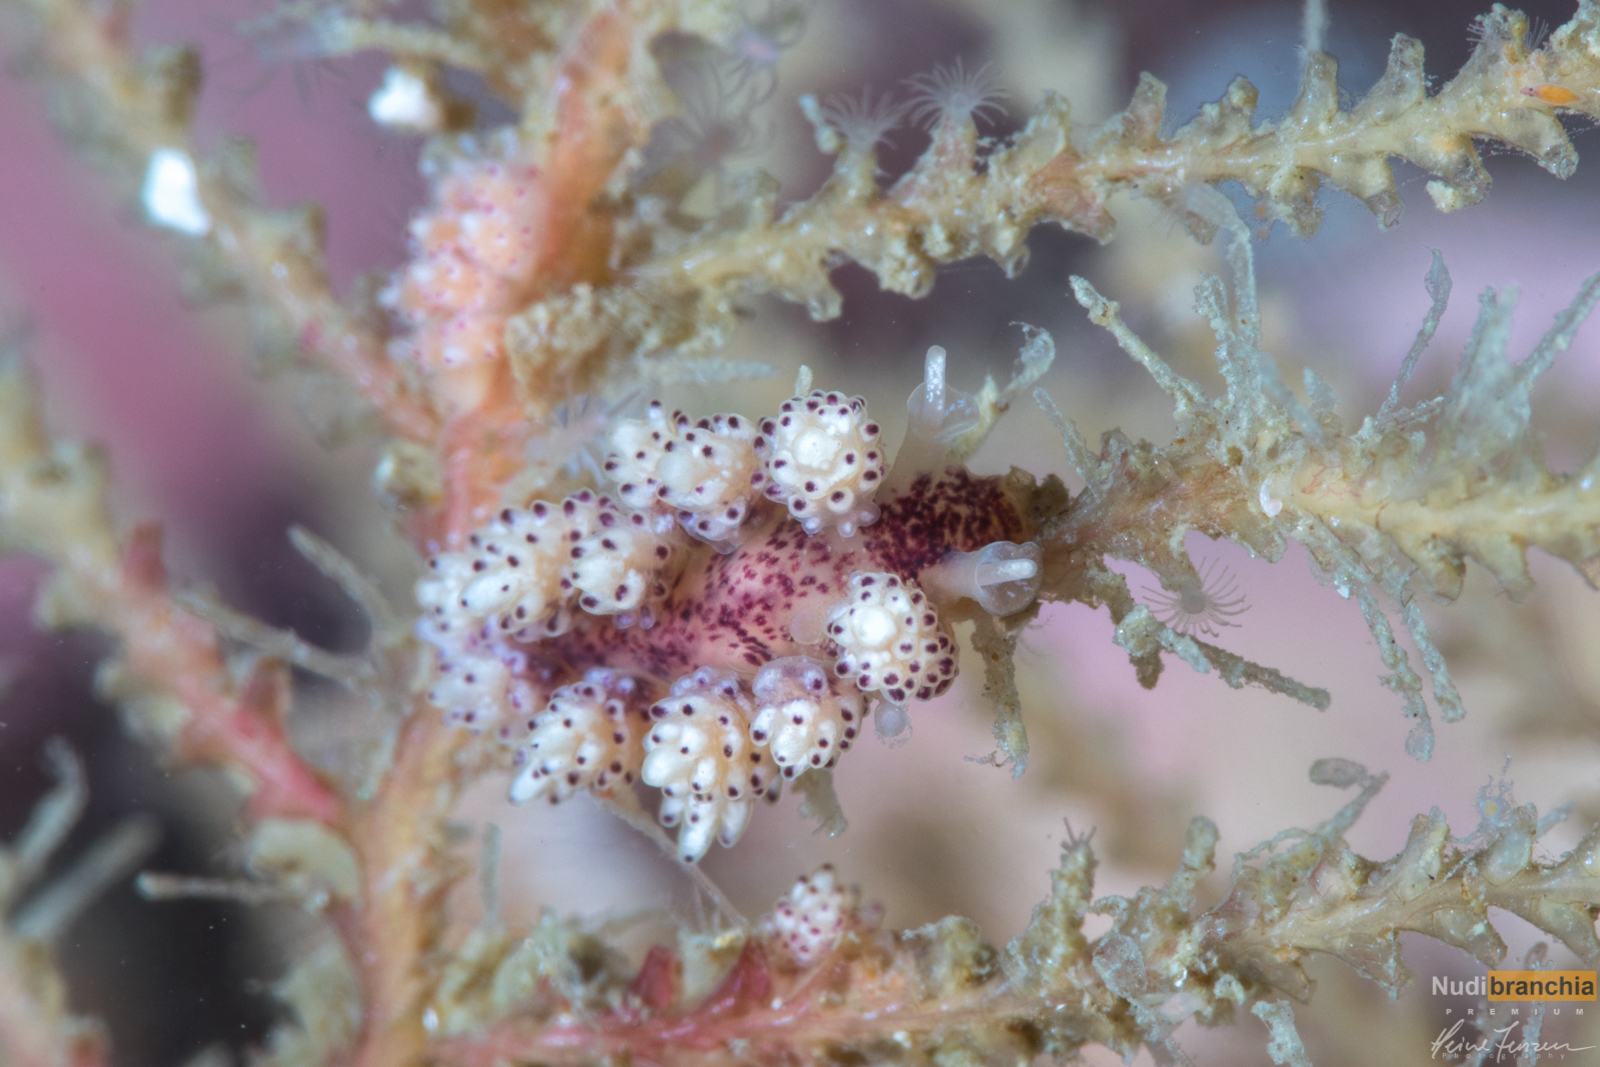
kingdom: Animalia
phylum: Mollusca
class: Gastropoda
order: Nudibranchia
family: Dotidae
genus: Doto
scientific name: Doto coronata
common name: Coronate doto
